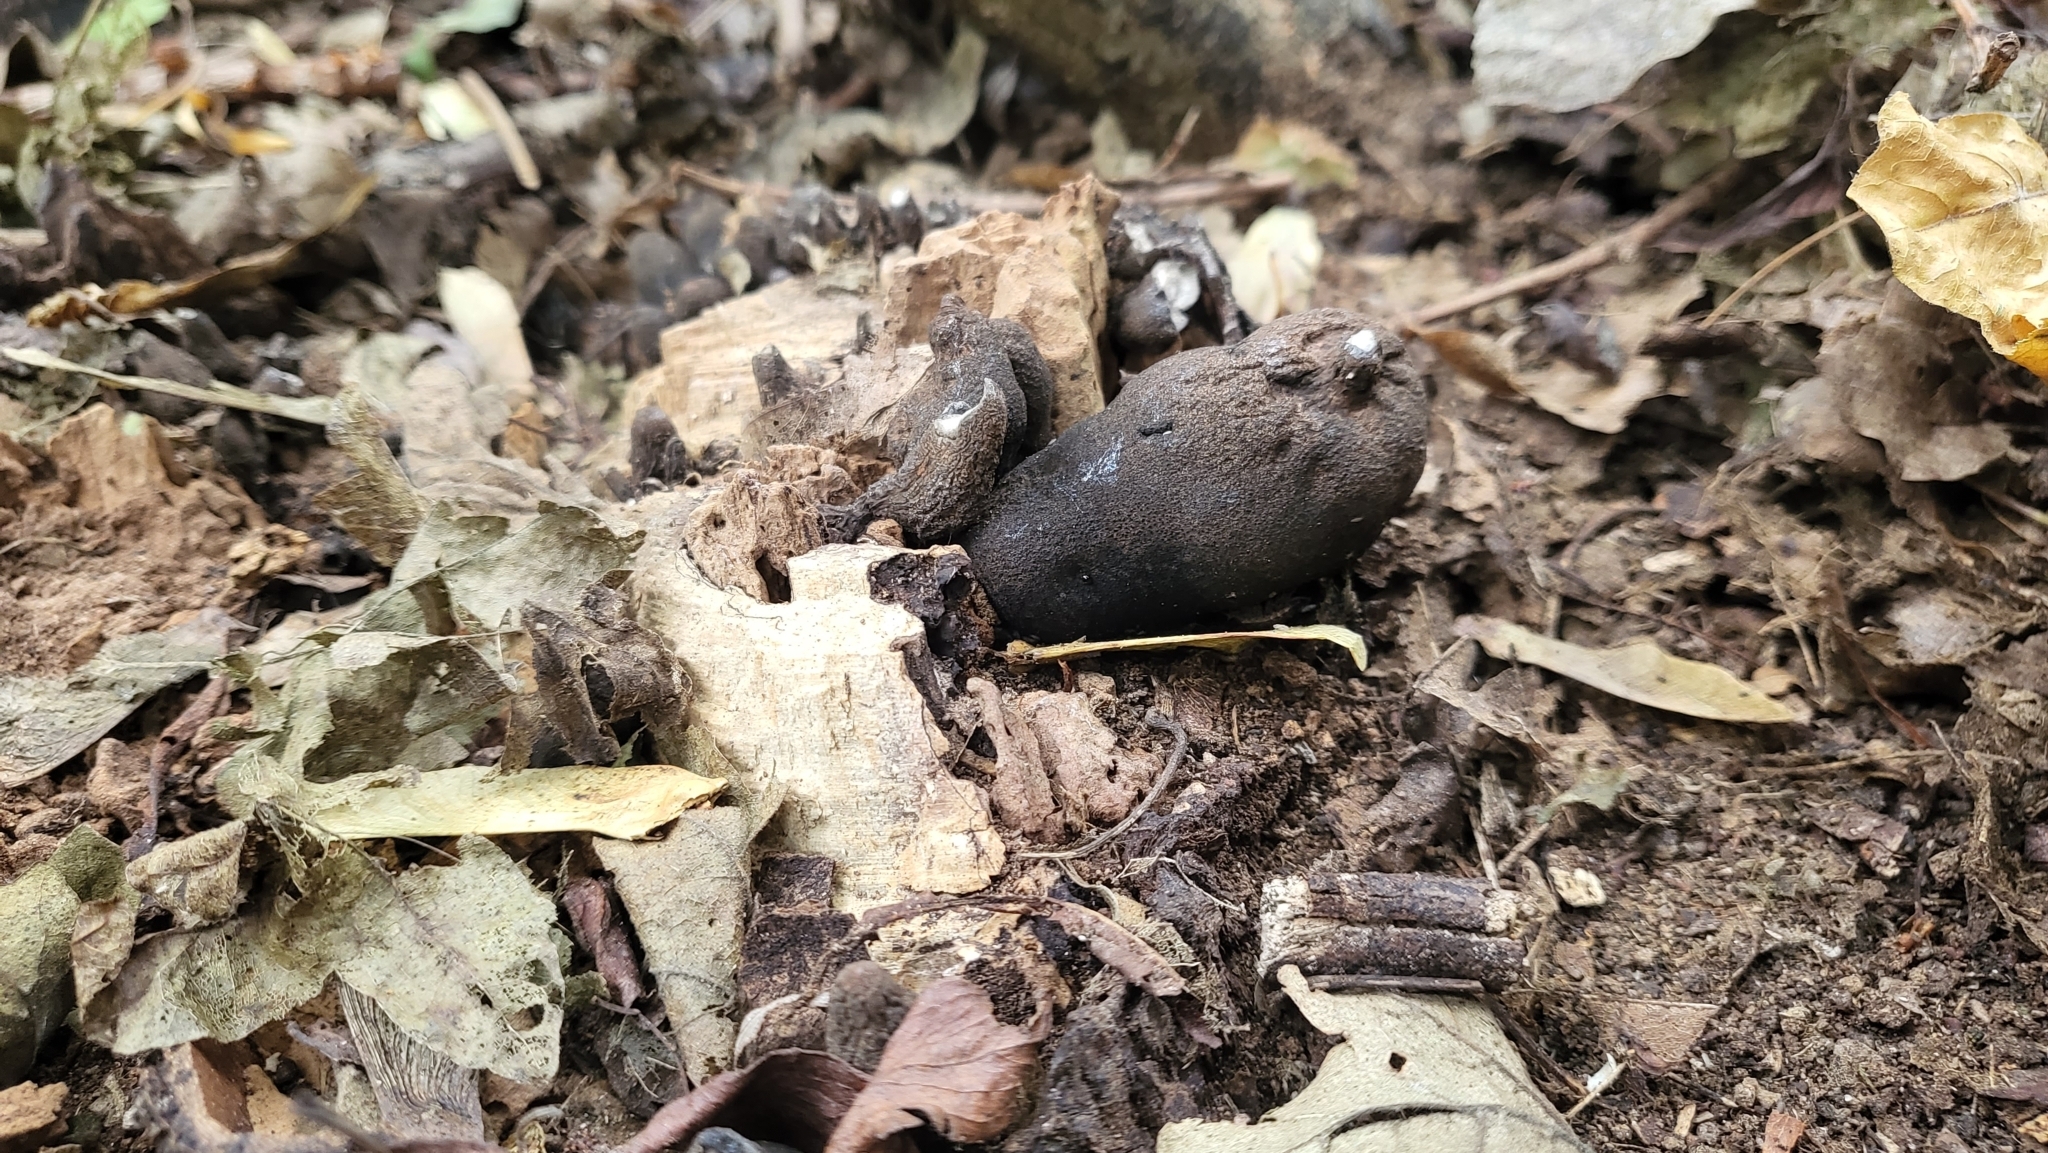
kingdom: Fungi
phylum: Ascomycota
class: Sordariomycetes
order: Xylariales
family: Xylariaceae
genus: Xylaria
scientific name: Xylaria polymorpha
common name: Dead man's fingers
